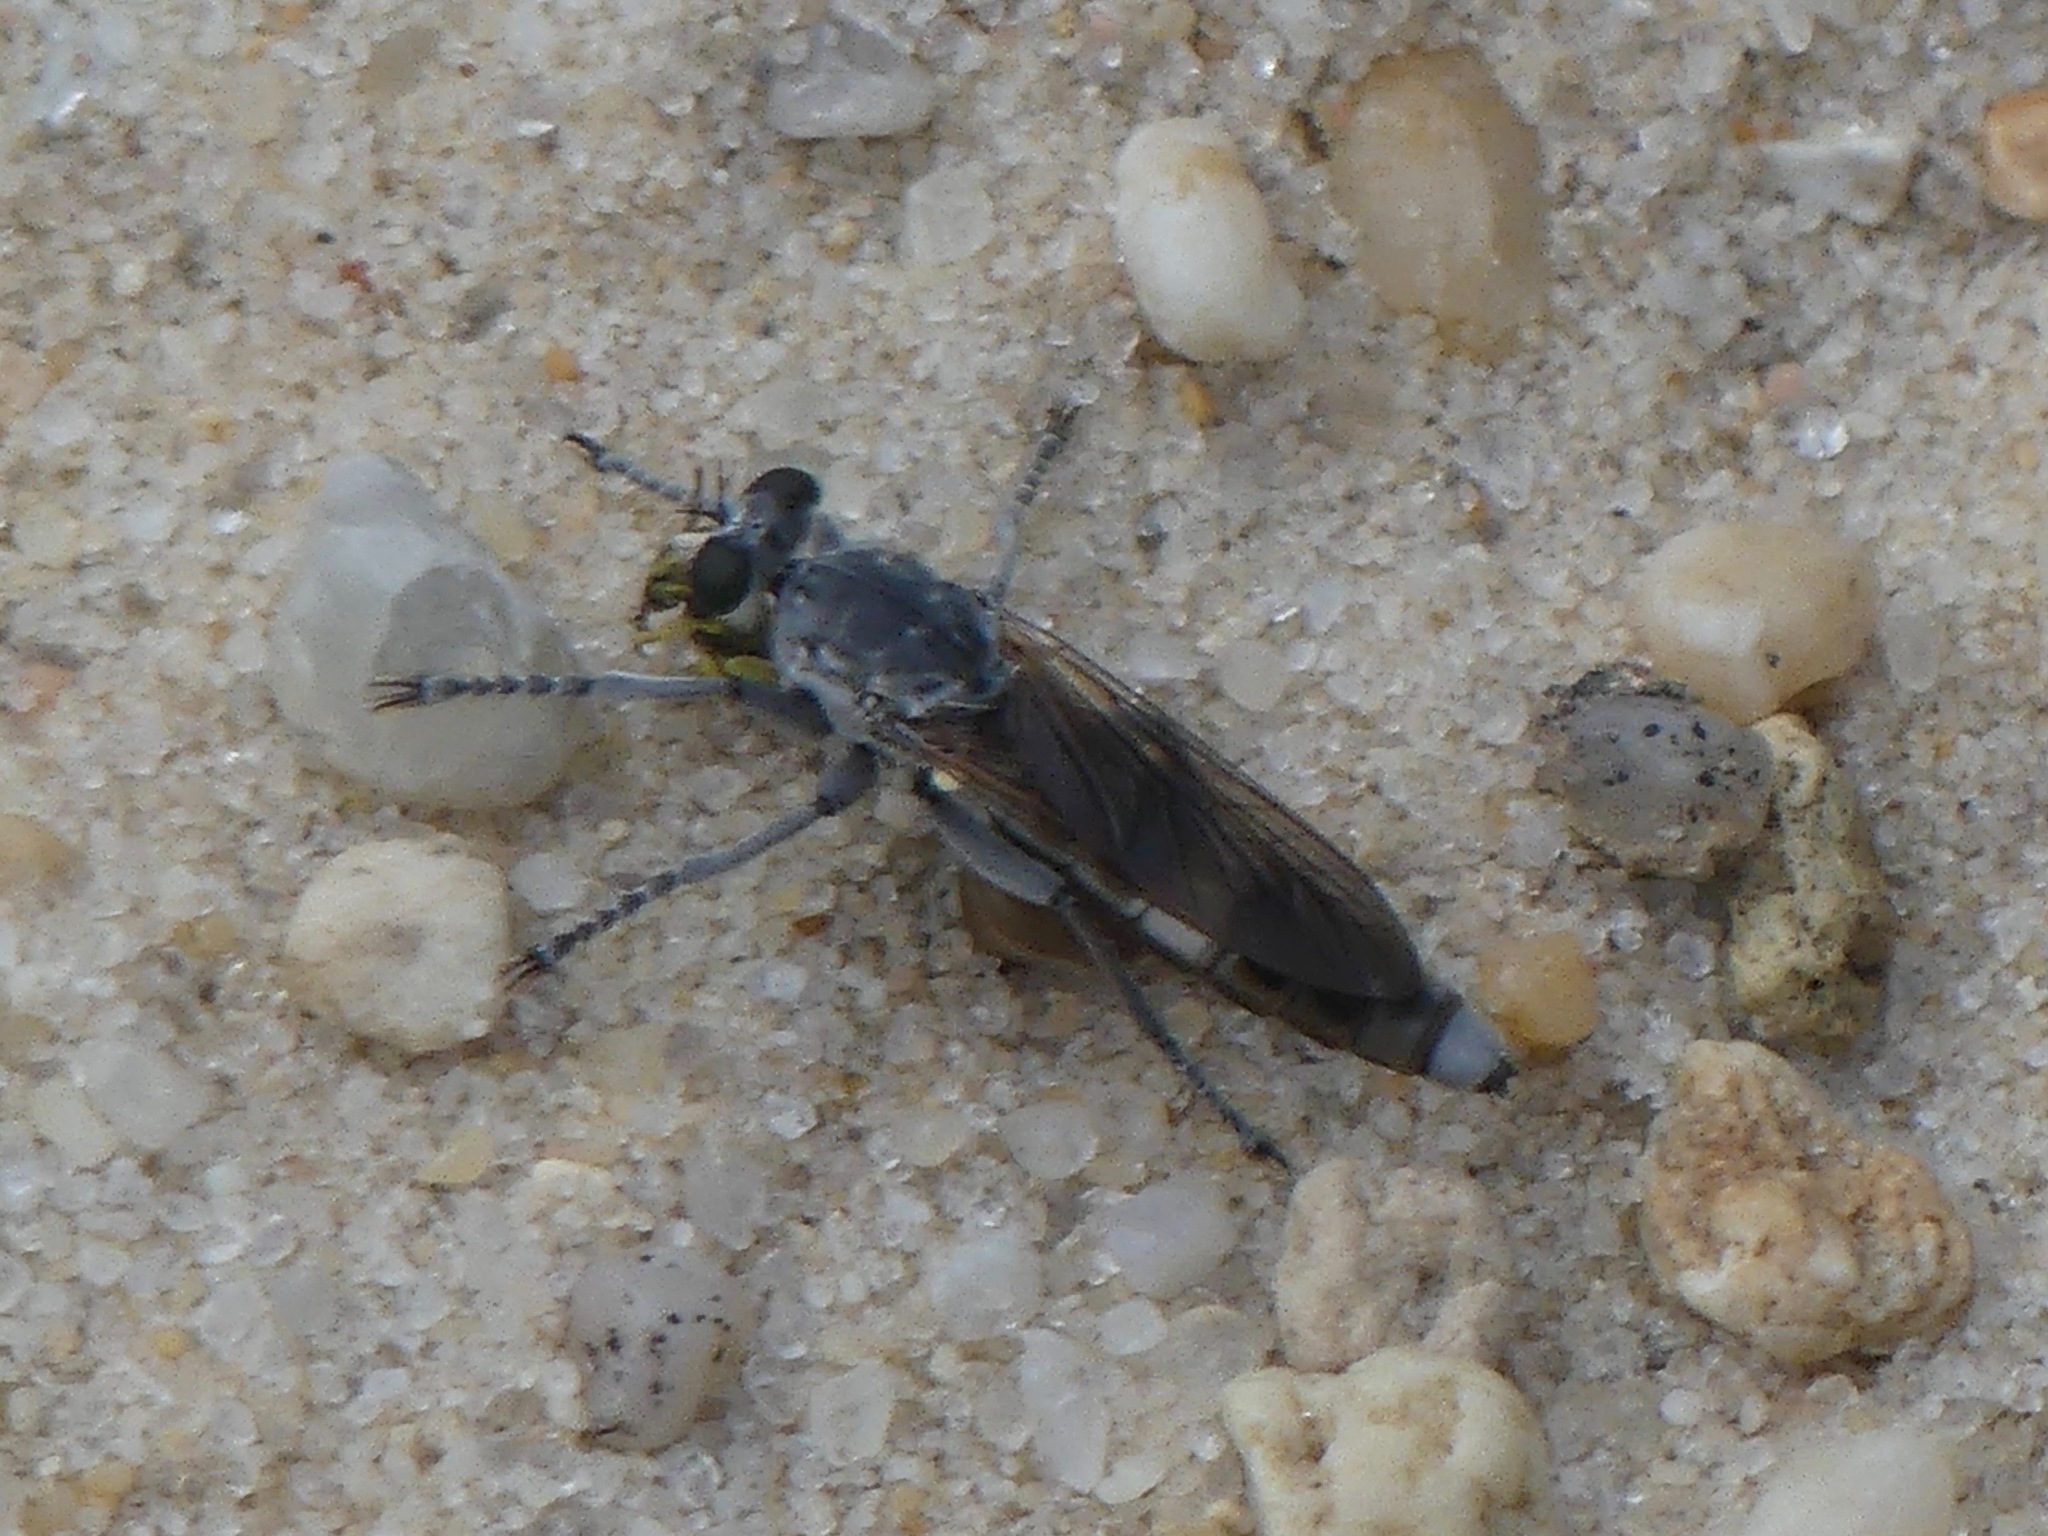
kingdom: Animalia
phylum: Arthropoda
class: Insecta
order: Diptera
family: Asilidae
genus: Stichopogon
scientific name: Stichopogon trifasciatus
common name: Three-banded robber fly
